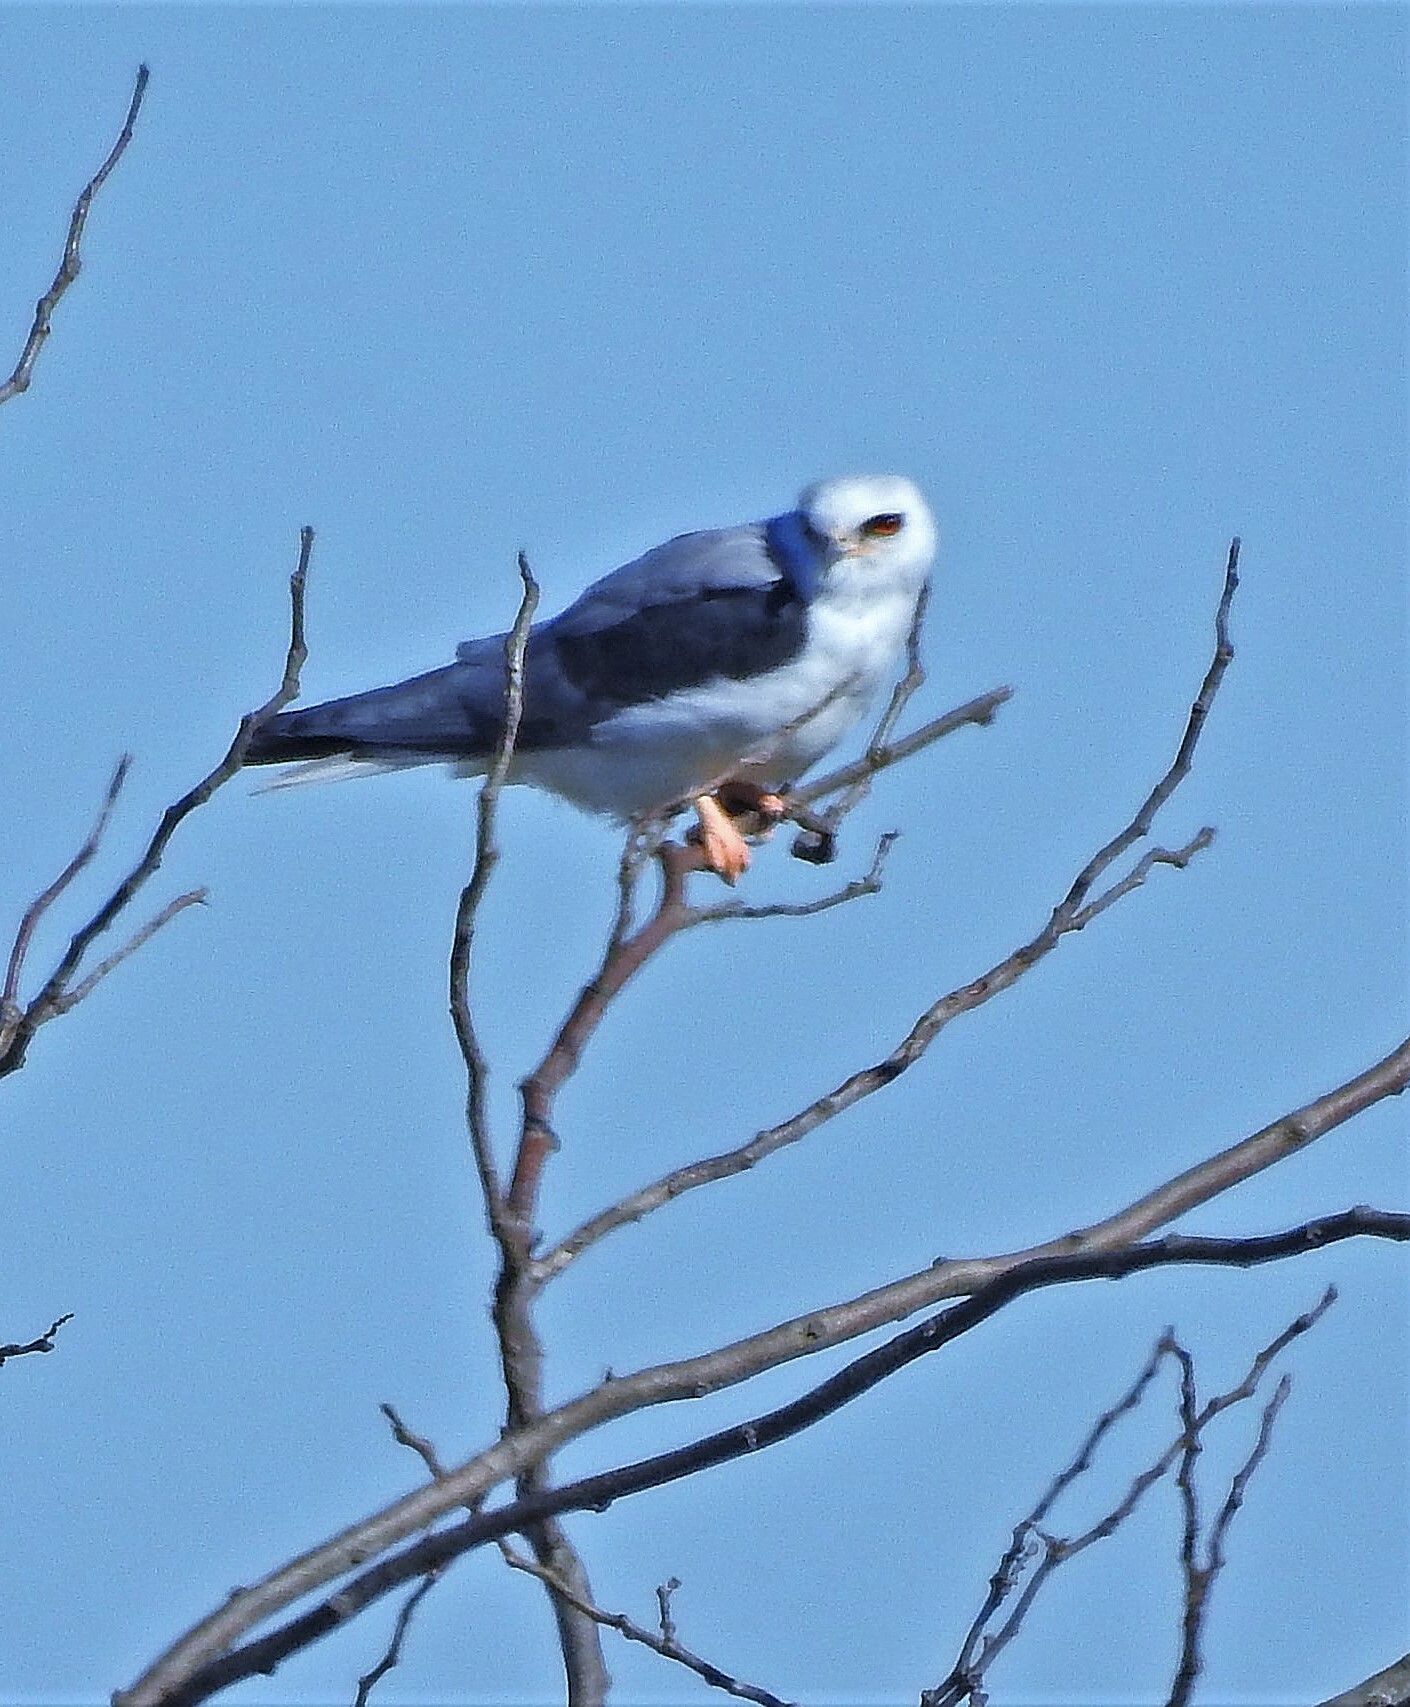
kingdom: Animalia
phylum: Chordata
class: Aves
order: Accipitriformes
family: Accipitridae
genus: Elanus
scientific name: Elanus leucurus
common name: White-tailed kite
